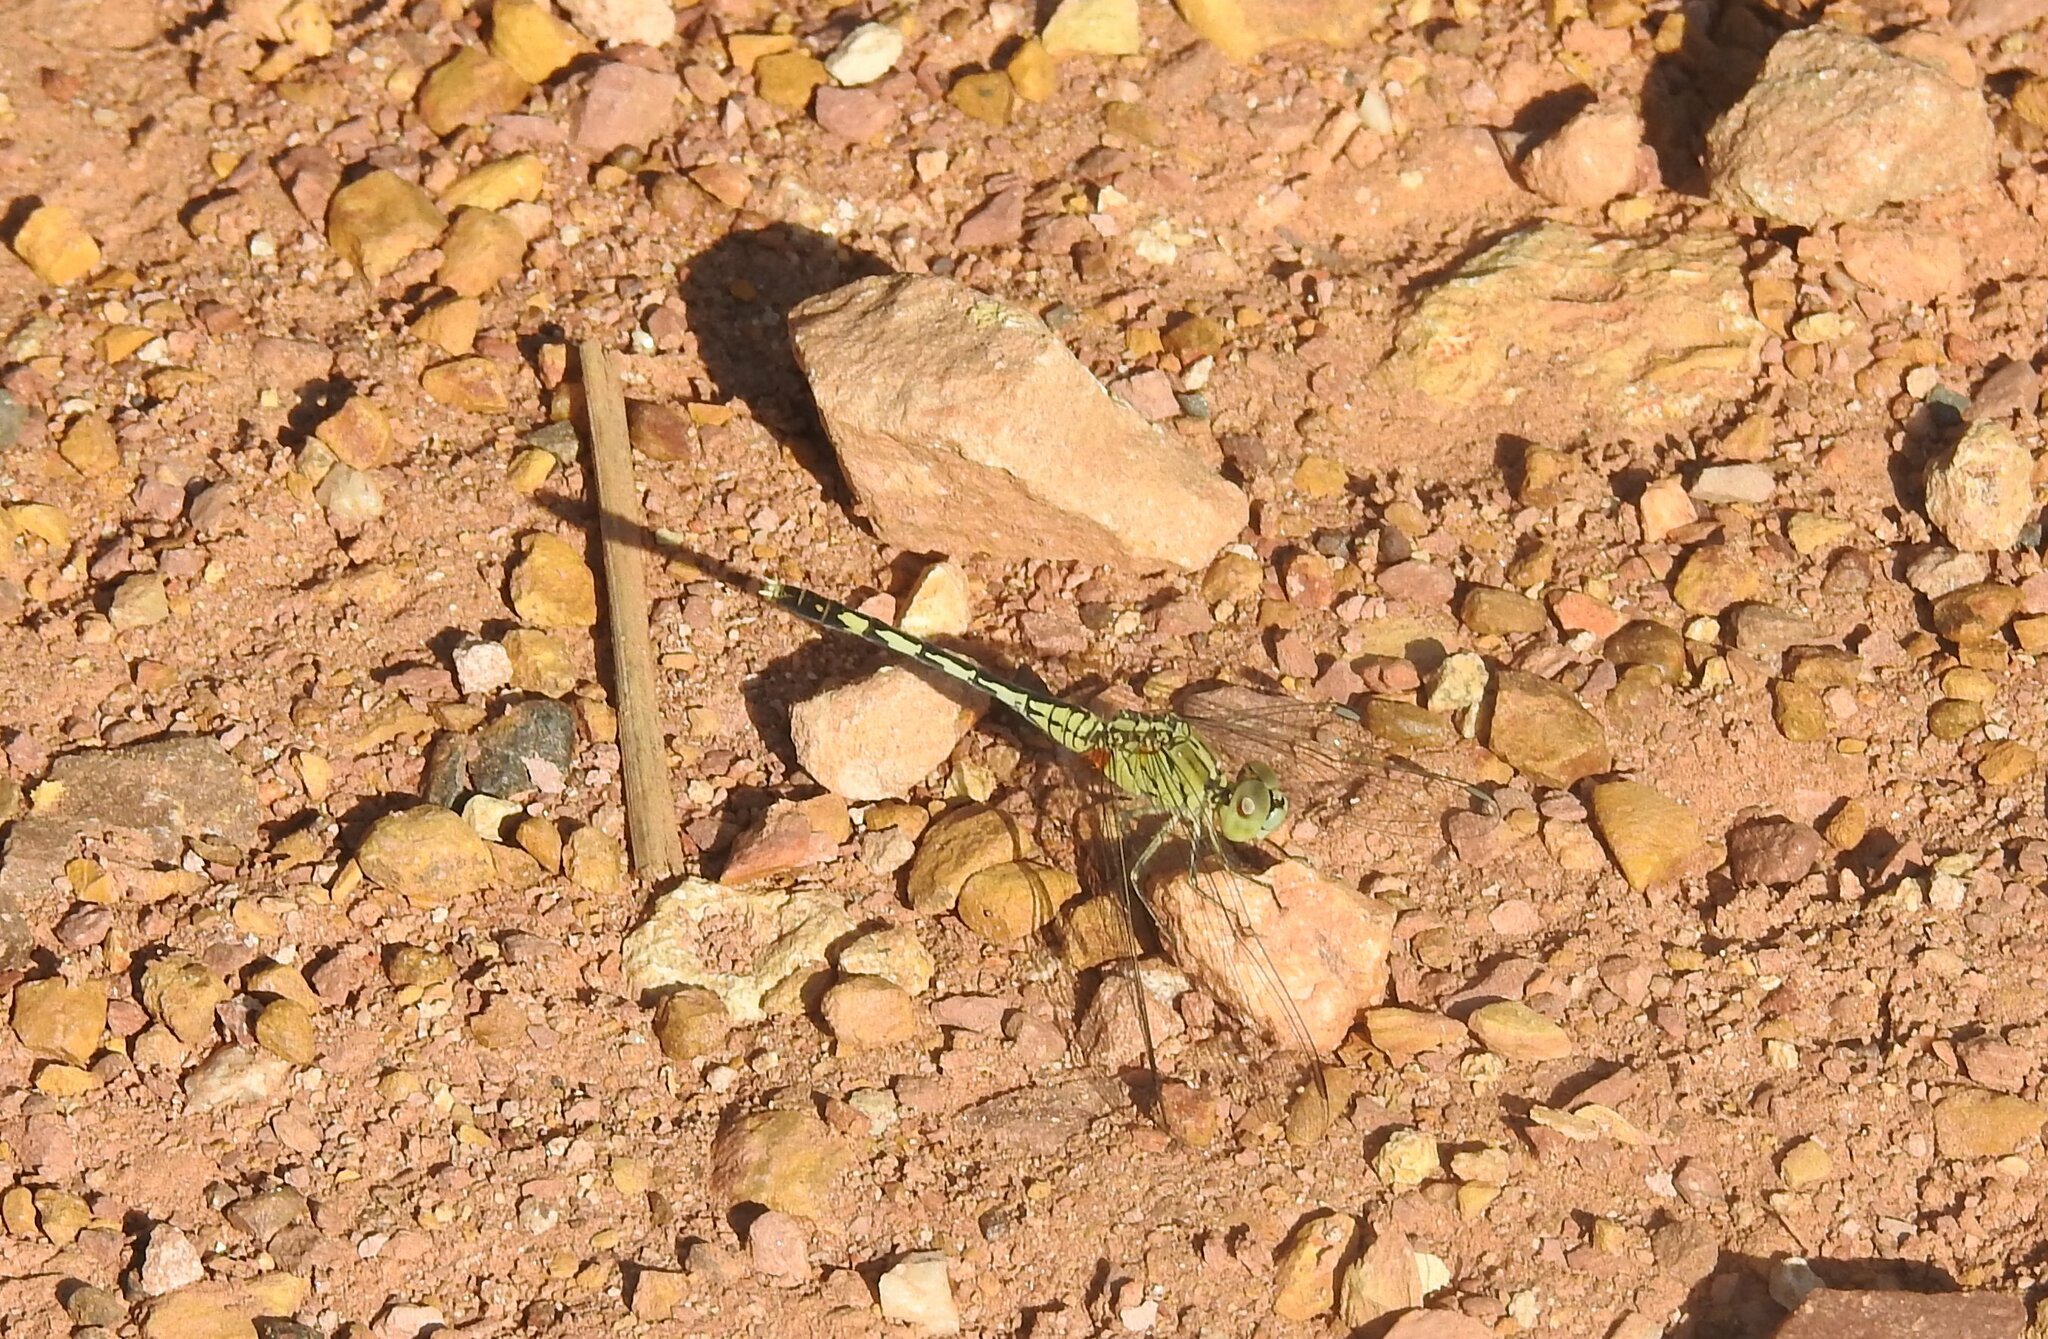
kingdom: Animalia
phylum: Arthropoda
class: Insecta
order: Odonata
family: Libellulidae
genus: Diplacodes
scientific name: Diplacodes trivialis
